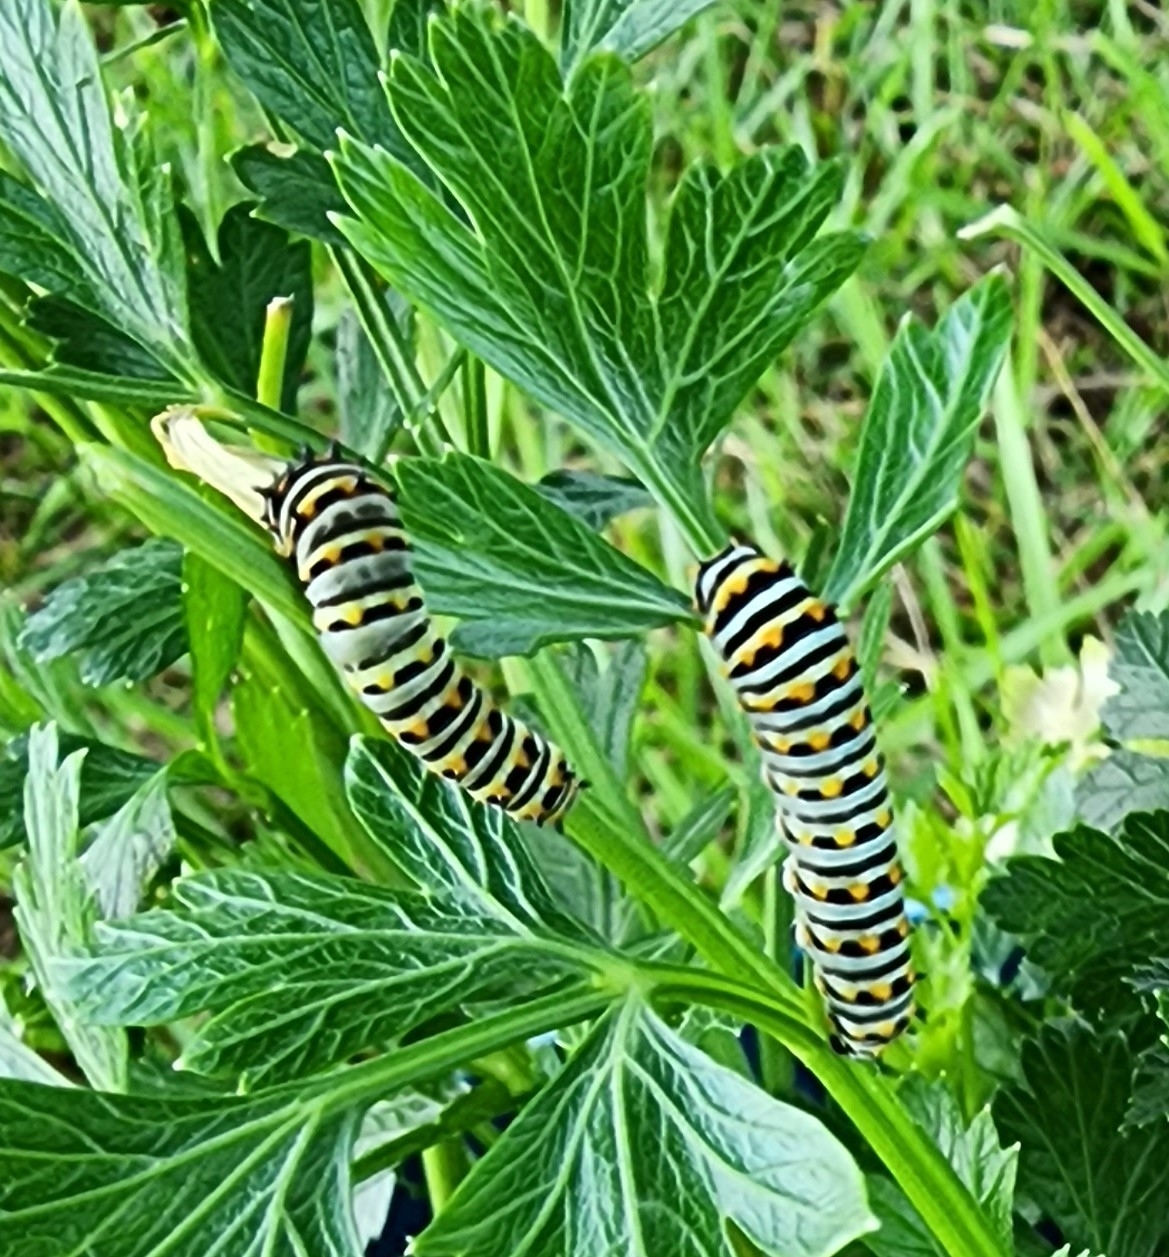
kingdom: Animalia
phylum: Arthropoda
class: Insecta
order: Lepidoptera
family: Papilionidae
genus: Papilio
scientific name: Papilio polyxenes
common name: Black swallowtail
